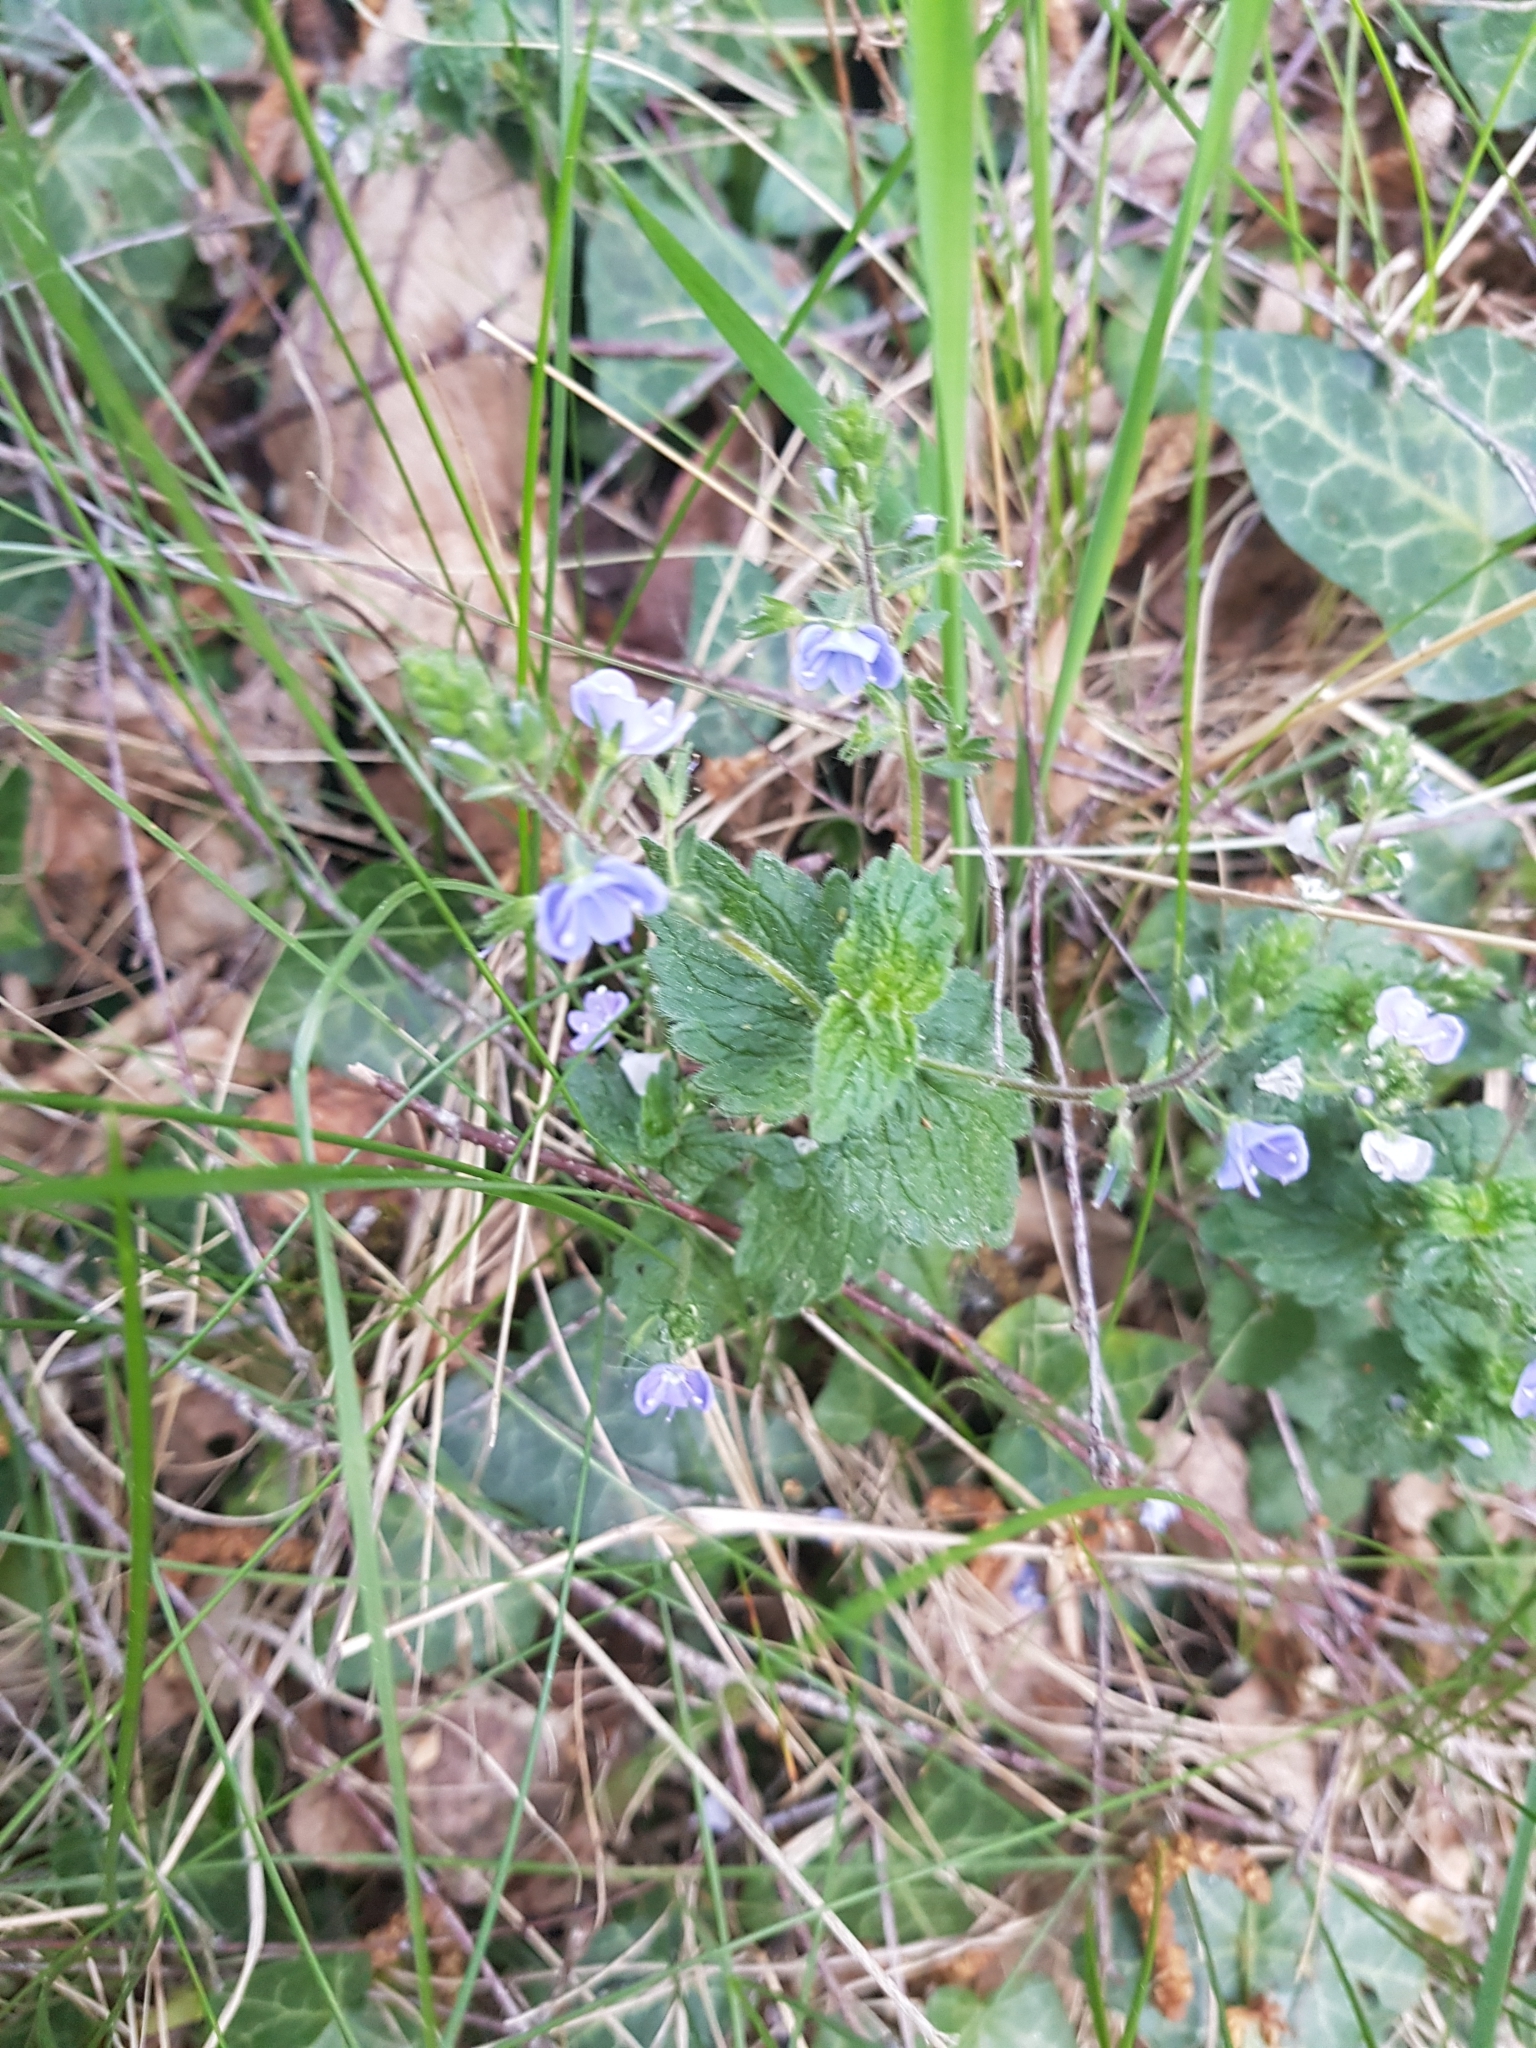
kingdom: Plantae
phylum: Tracheophyta
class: Magnoliopsida
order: Lamiales
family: Plantaginaceae
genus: Veronica
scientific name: Veronica chamaedrys
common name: Germander speedwell
